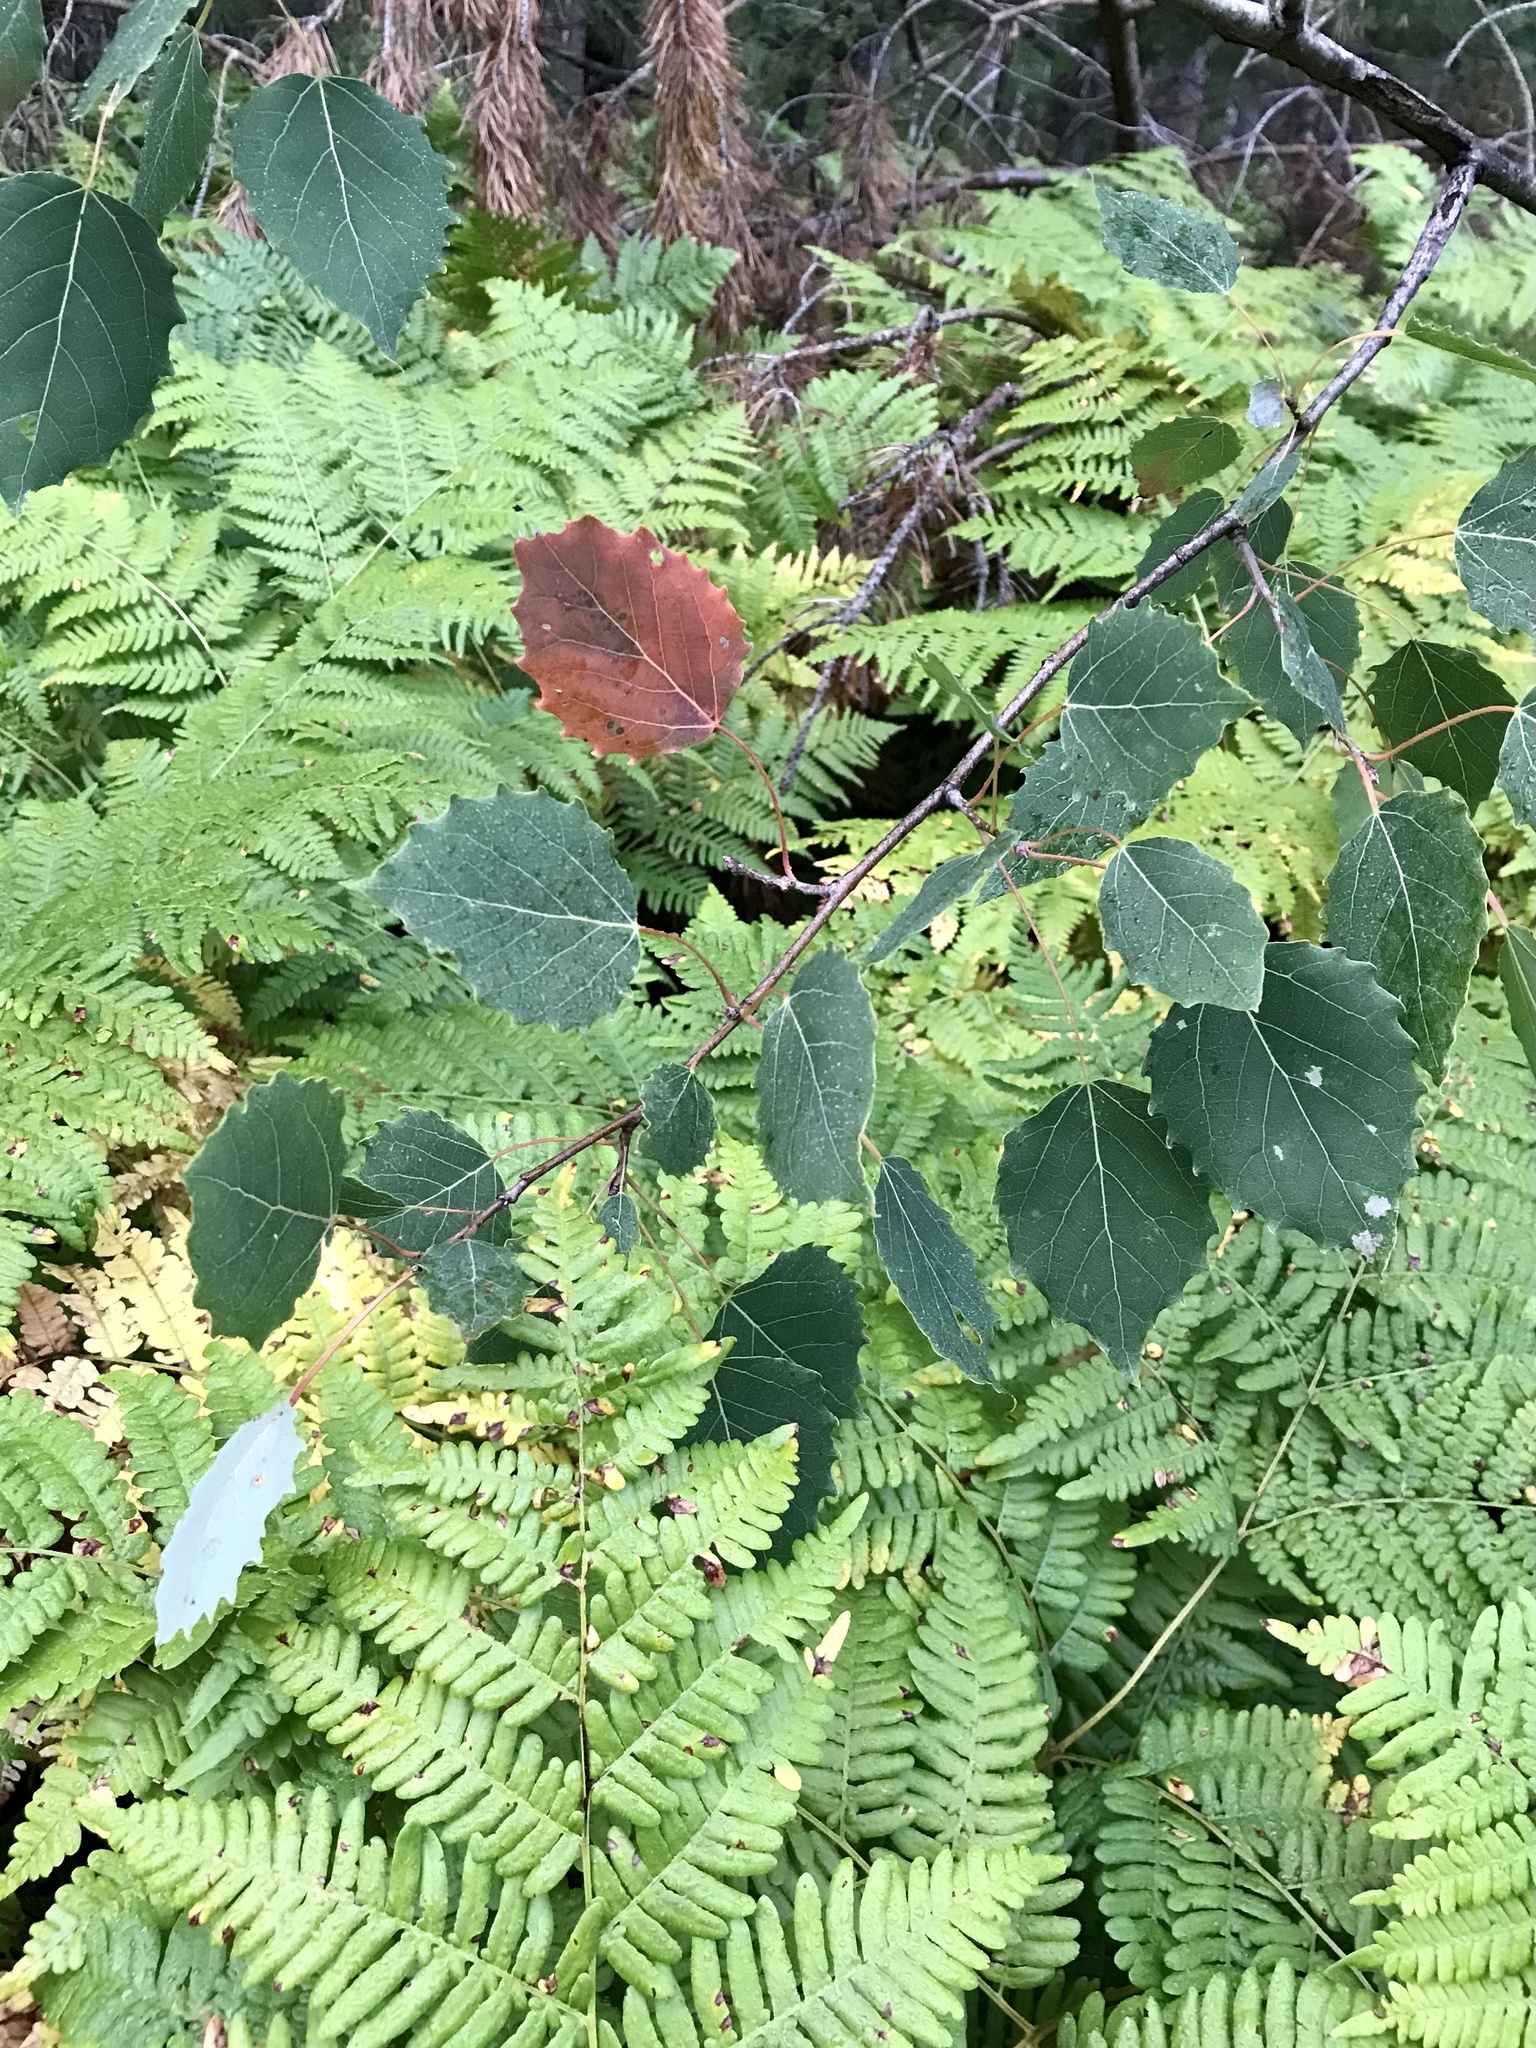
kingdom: Plantae
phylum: Tracheophyta
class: Magnoliopsida
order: Malpighiales
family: Salicaceae
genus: Populus
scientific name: Populus grandidentata
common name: Bigtooth aspen
